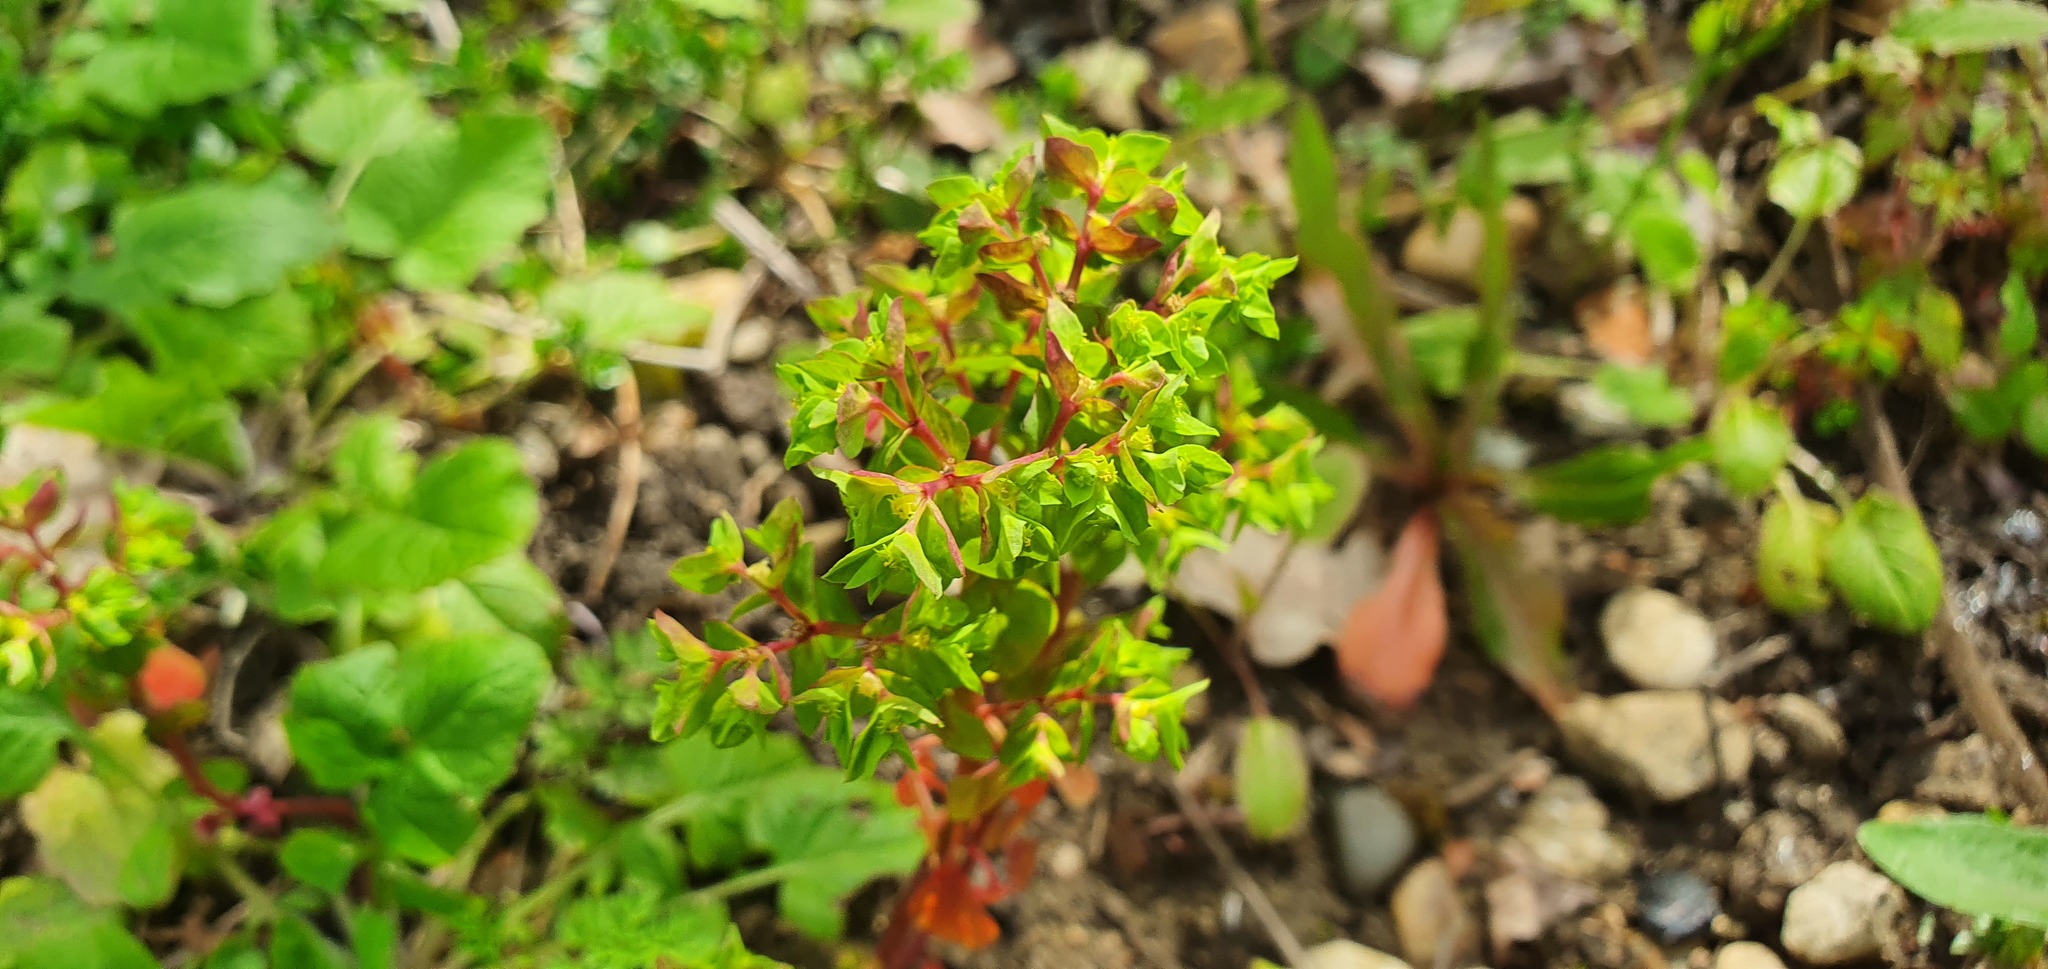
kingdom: Plantae
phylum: Tracheophyta
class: Magnoliopsida
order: Malpighiales
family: Euphorbiaceae
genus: Euphorbia
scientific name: Euphorbia peplus
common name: Petty spurge
